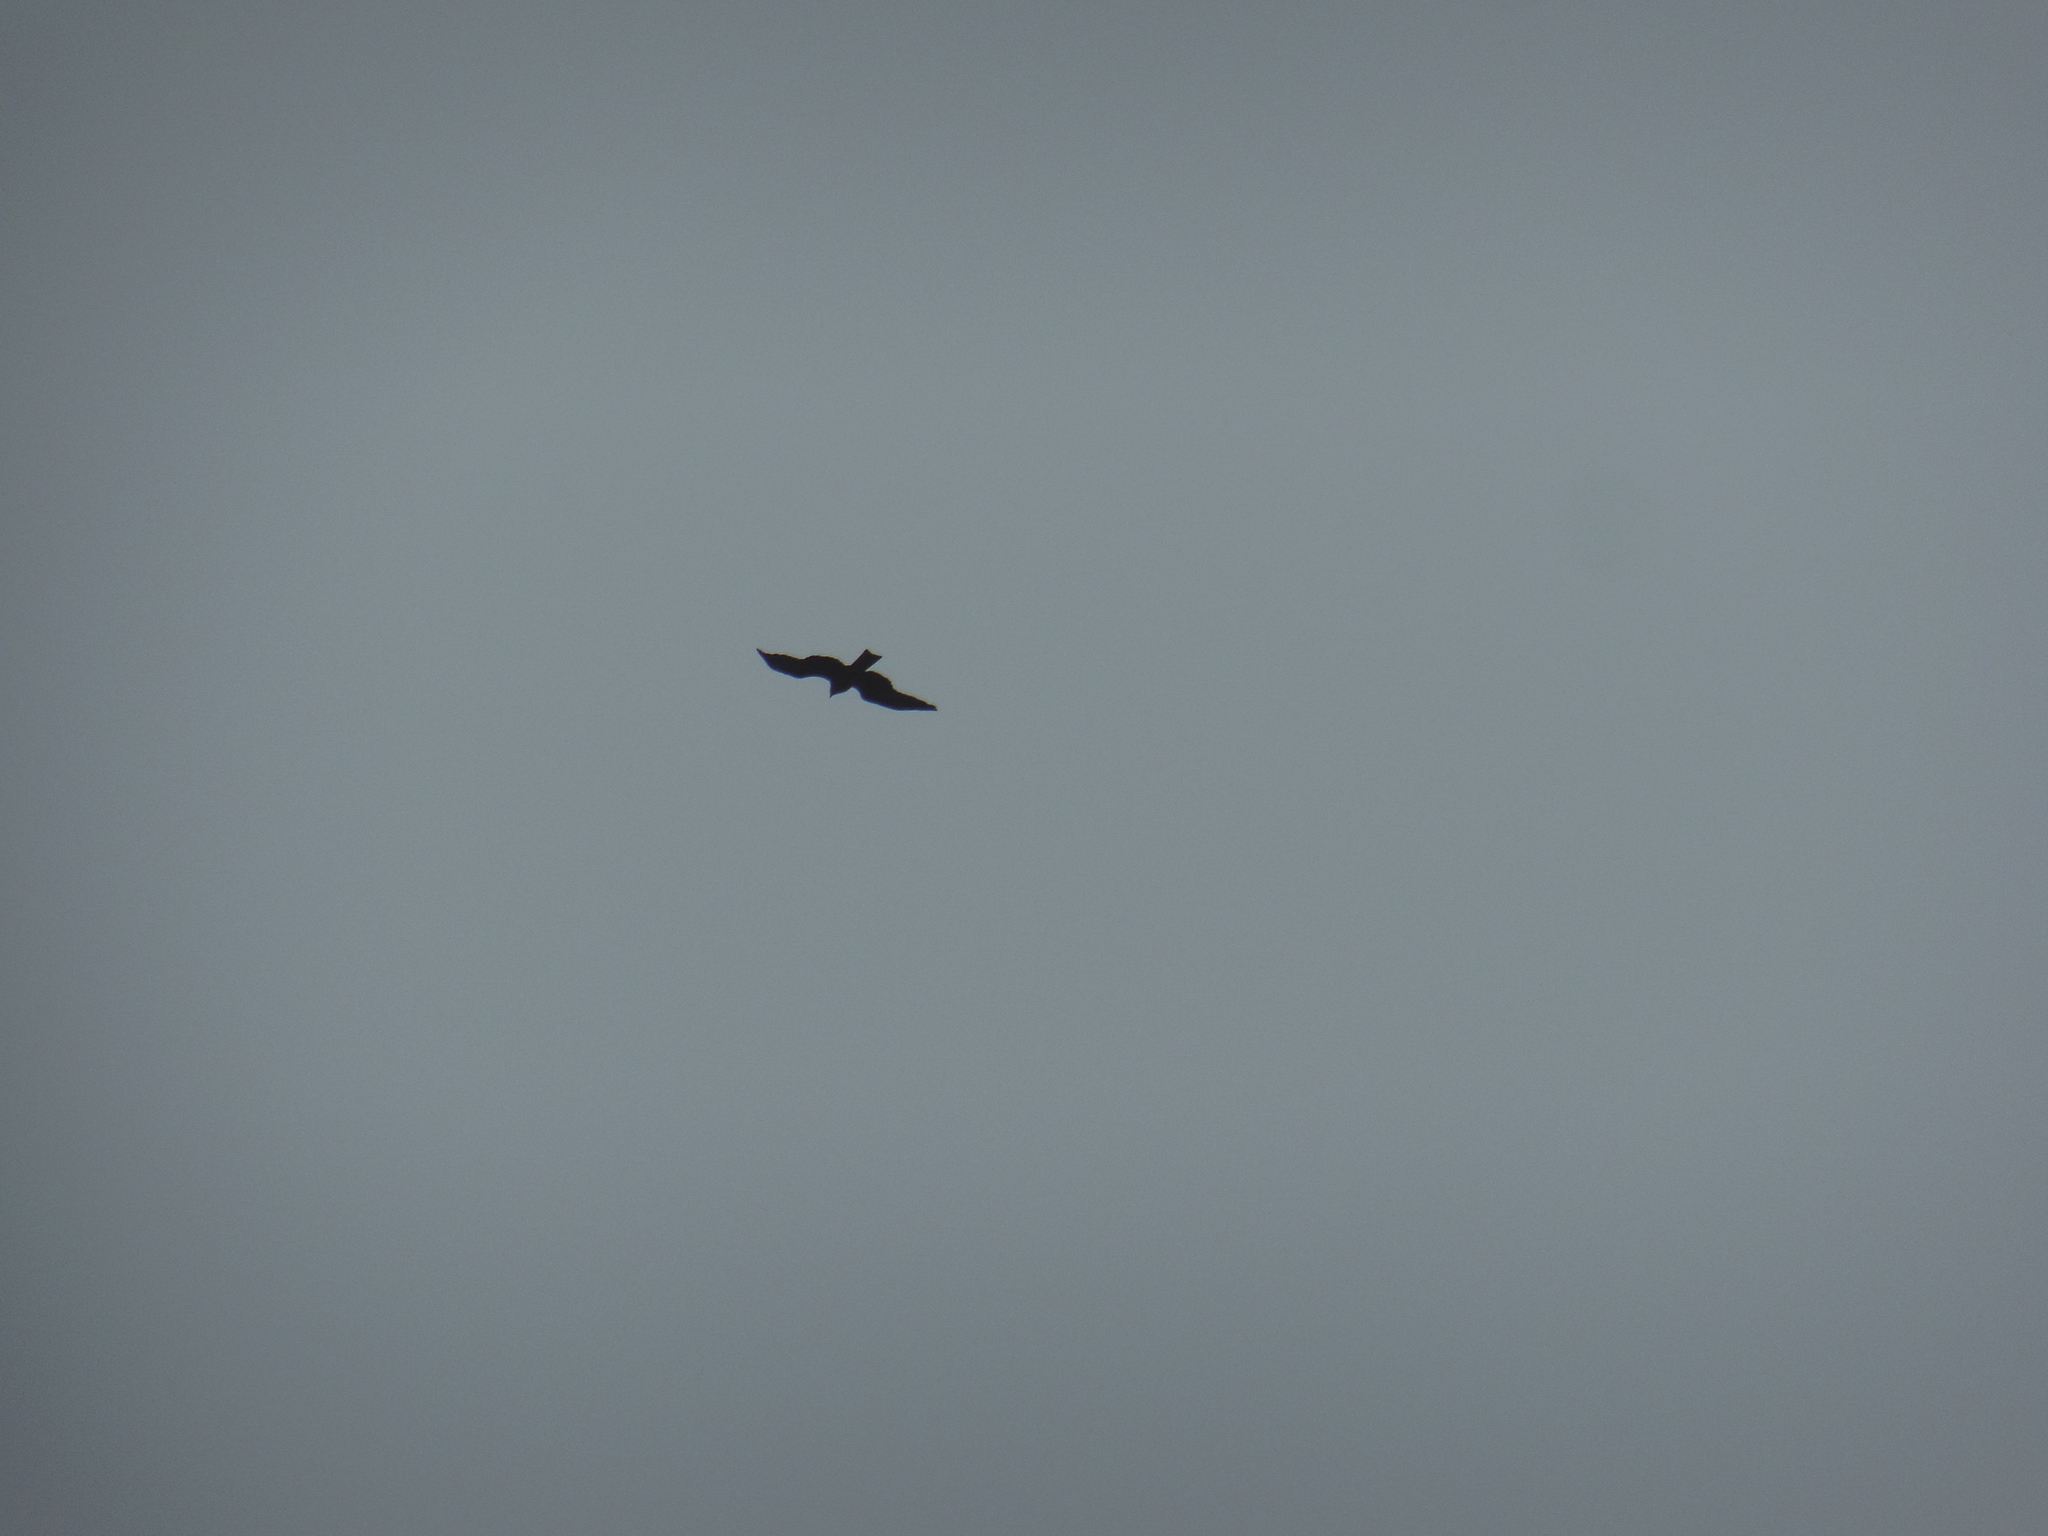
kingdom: Animalia
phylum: Chordata
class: Aves
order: Accipitriformes
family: Accipitridae
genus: Milvus
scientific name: Milvus migrans
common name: Black kite
